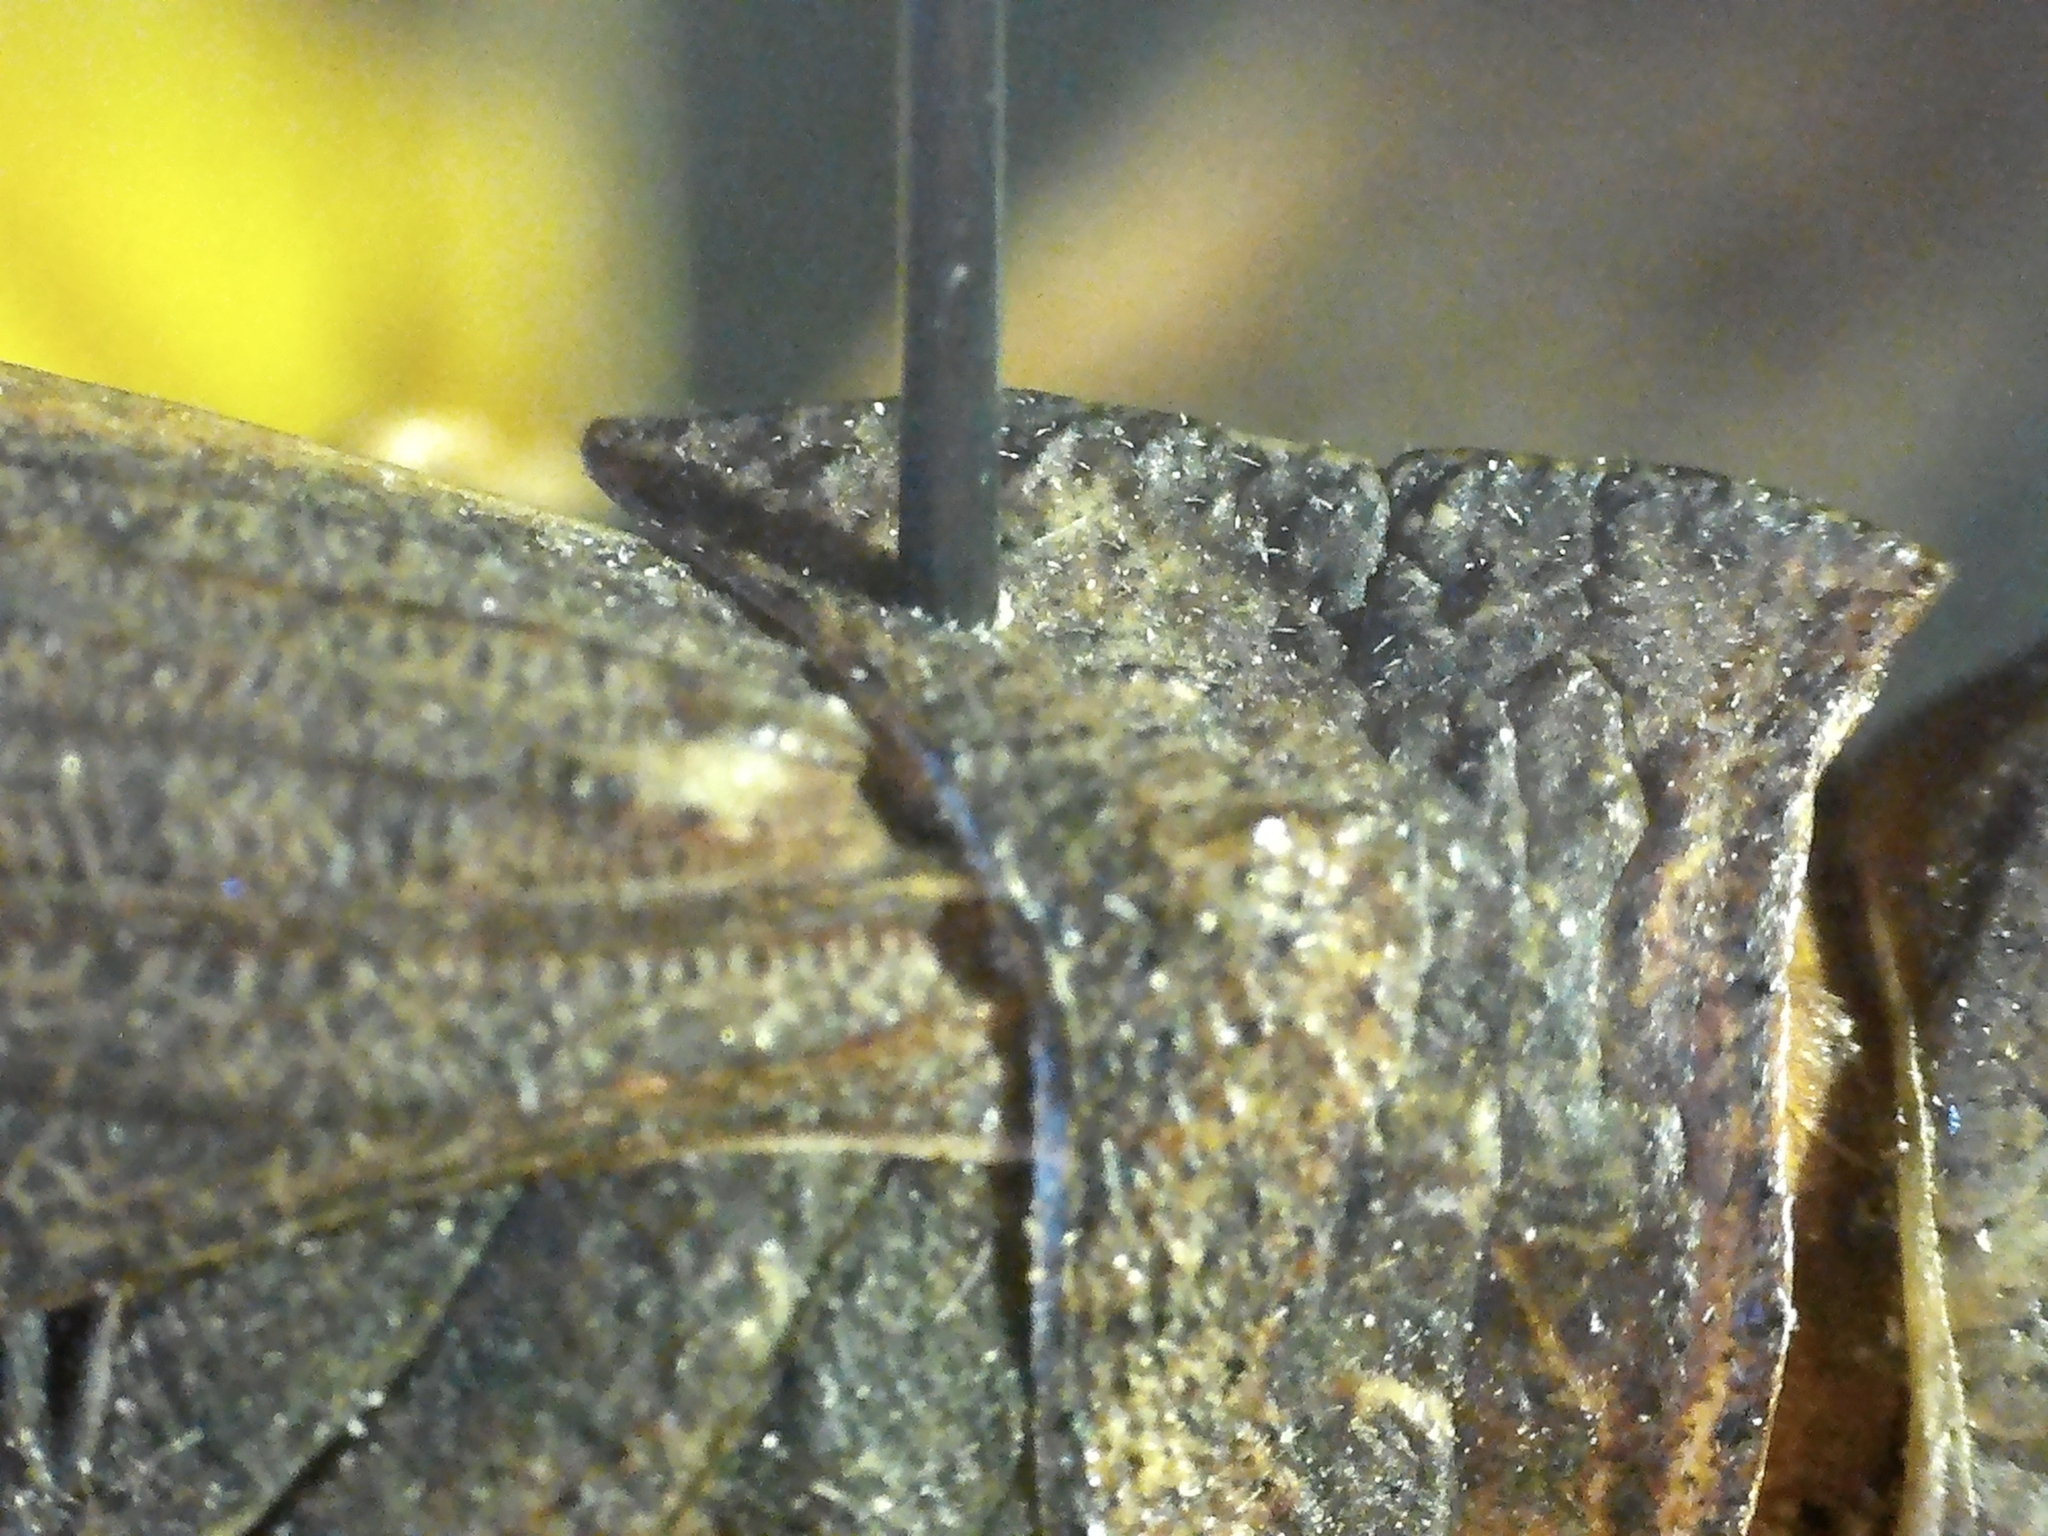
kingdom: Animalia
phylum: Arthropoda
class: Insecta
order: Orthoptera
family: Acrididae
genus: Arphia
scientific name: Arphia conspersa
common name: Speckle-winged rangeland grasshopper
